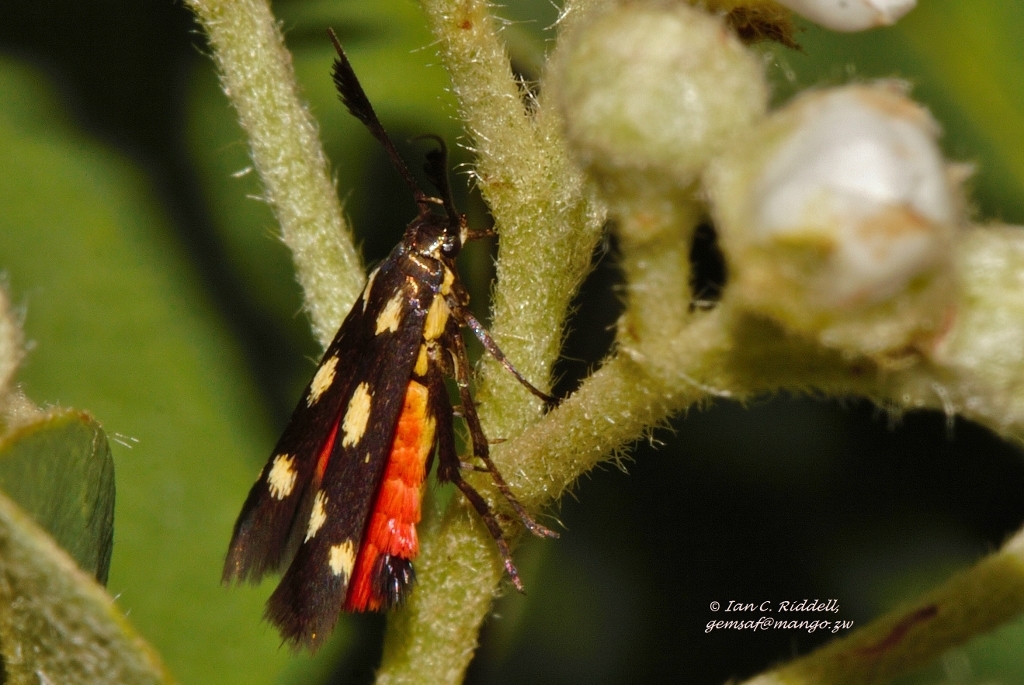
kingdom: Animalia
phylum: Arthropoda
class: Insecta
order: Lepidoptera
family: Scythrididae
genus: Eretmocera
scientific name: Eretmocera laetissima
